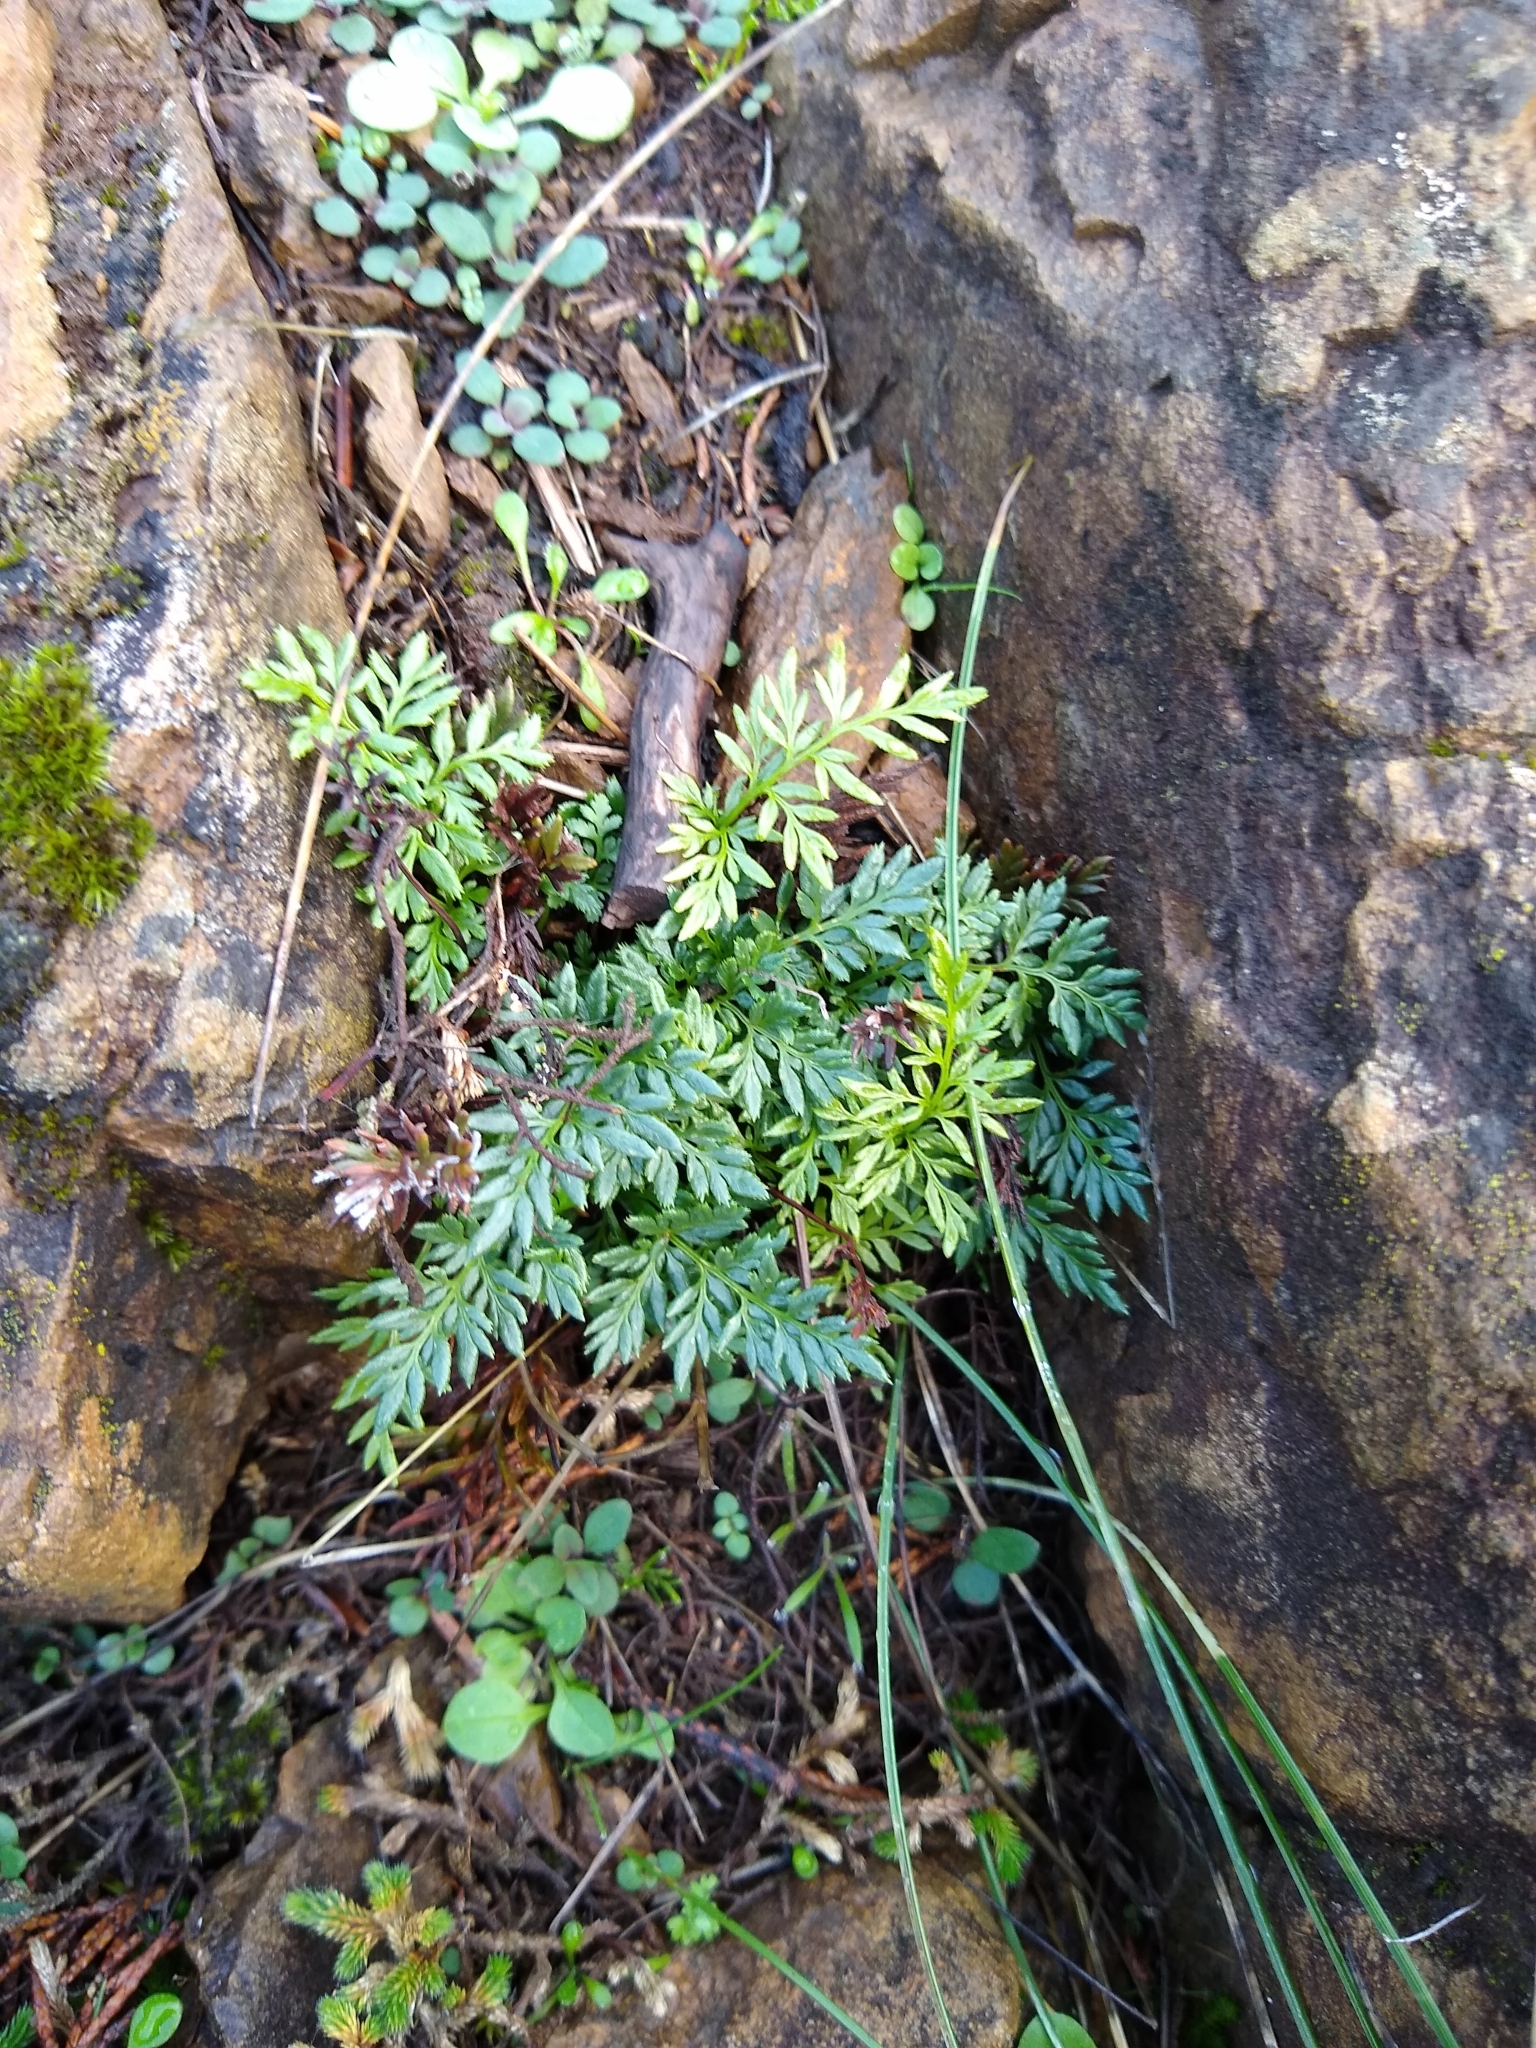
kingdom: Plantae
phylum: Tracheophyta
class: Polypodiopsida
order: Polypodiales
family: Pteridaceae
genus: Aspidotis
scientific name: Aspidotis densa
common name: Indian's dream
